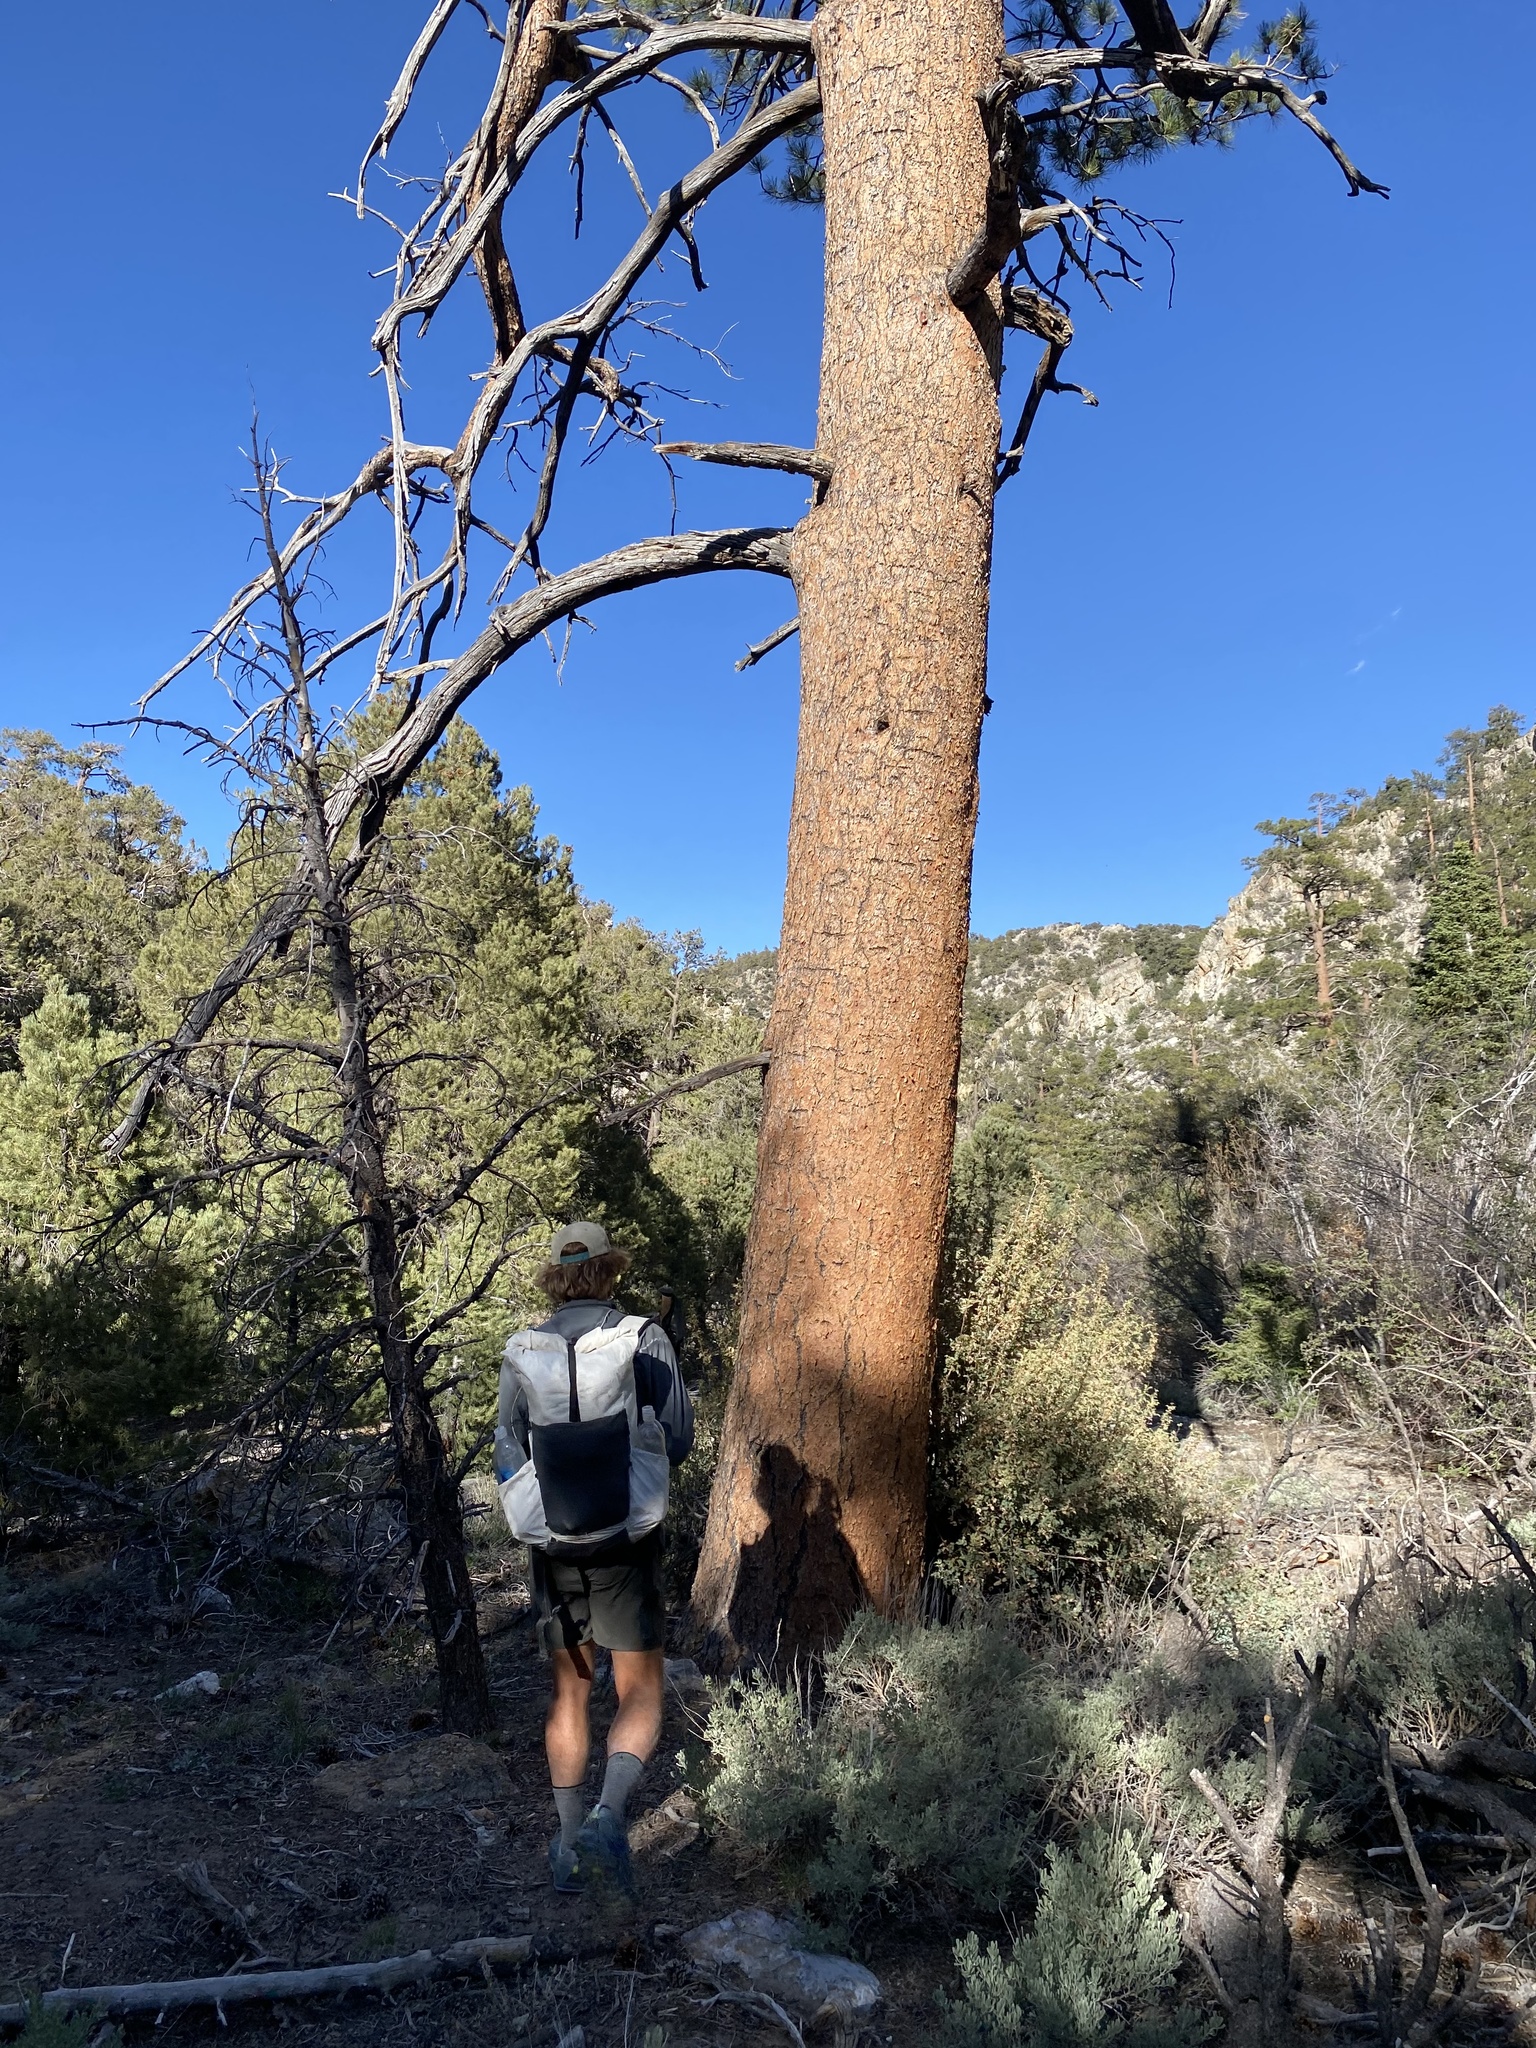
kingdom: Plantae
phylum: Tracheophyta
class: Pinopsida
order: Pinales
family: Pinaceae
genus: Pinus
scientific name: Pinus ponderosa
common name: Western yellow-pine
